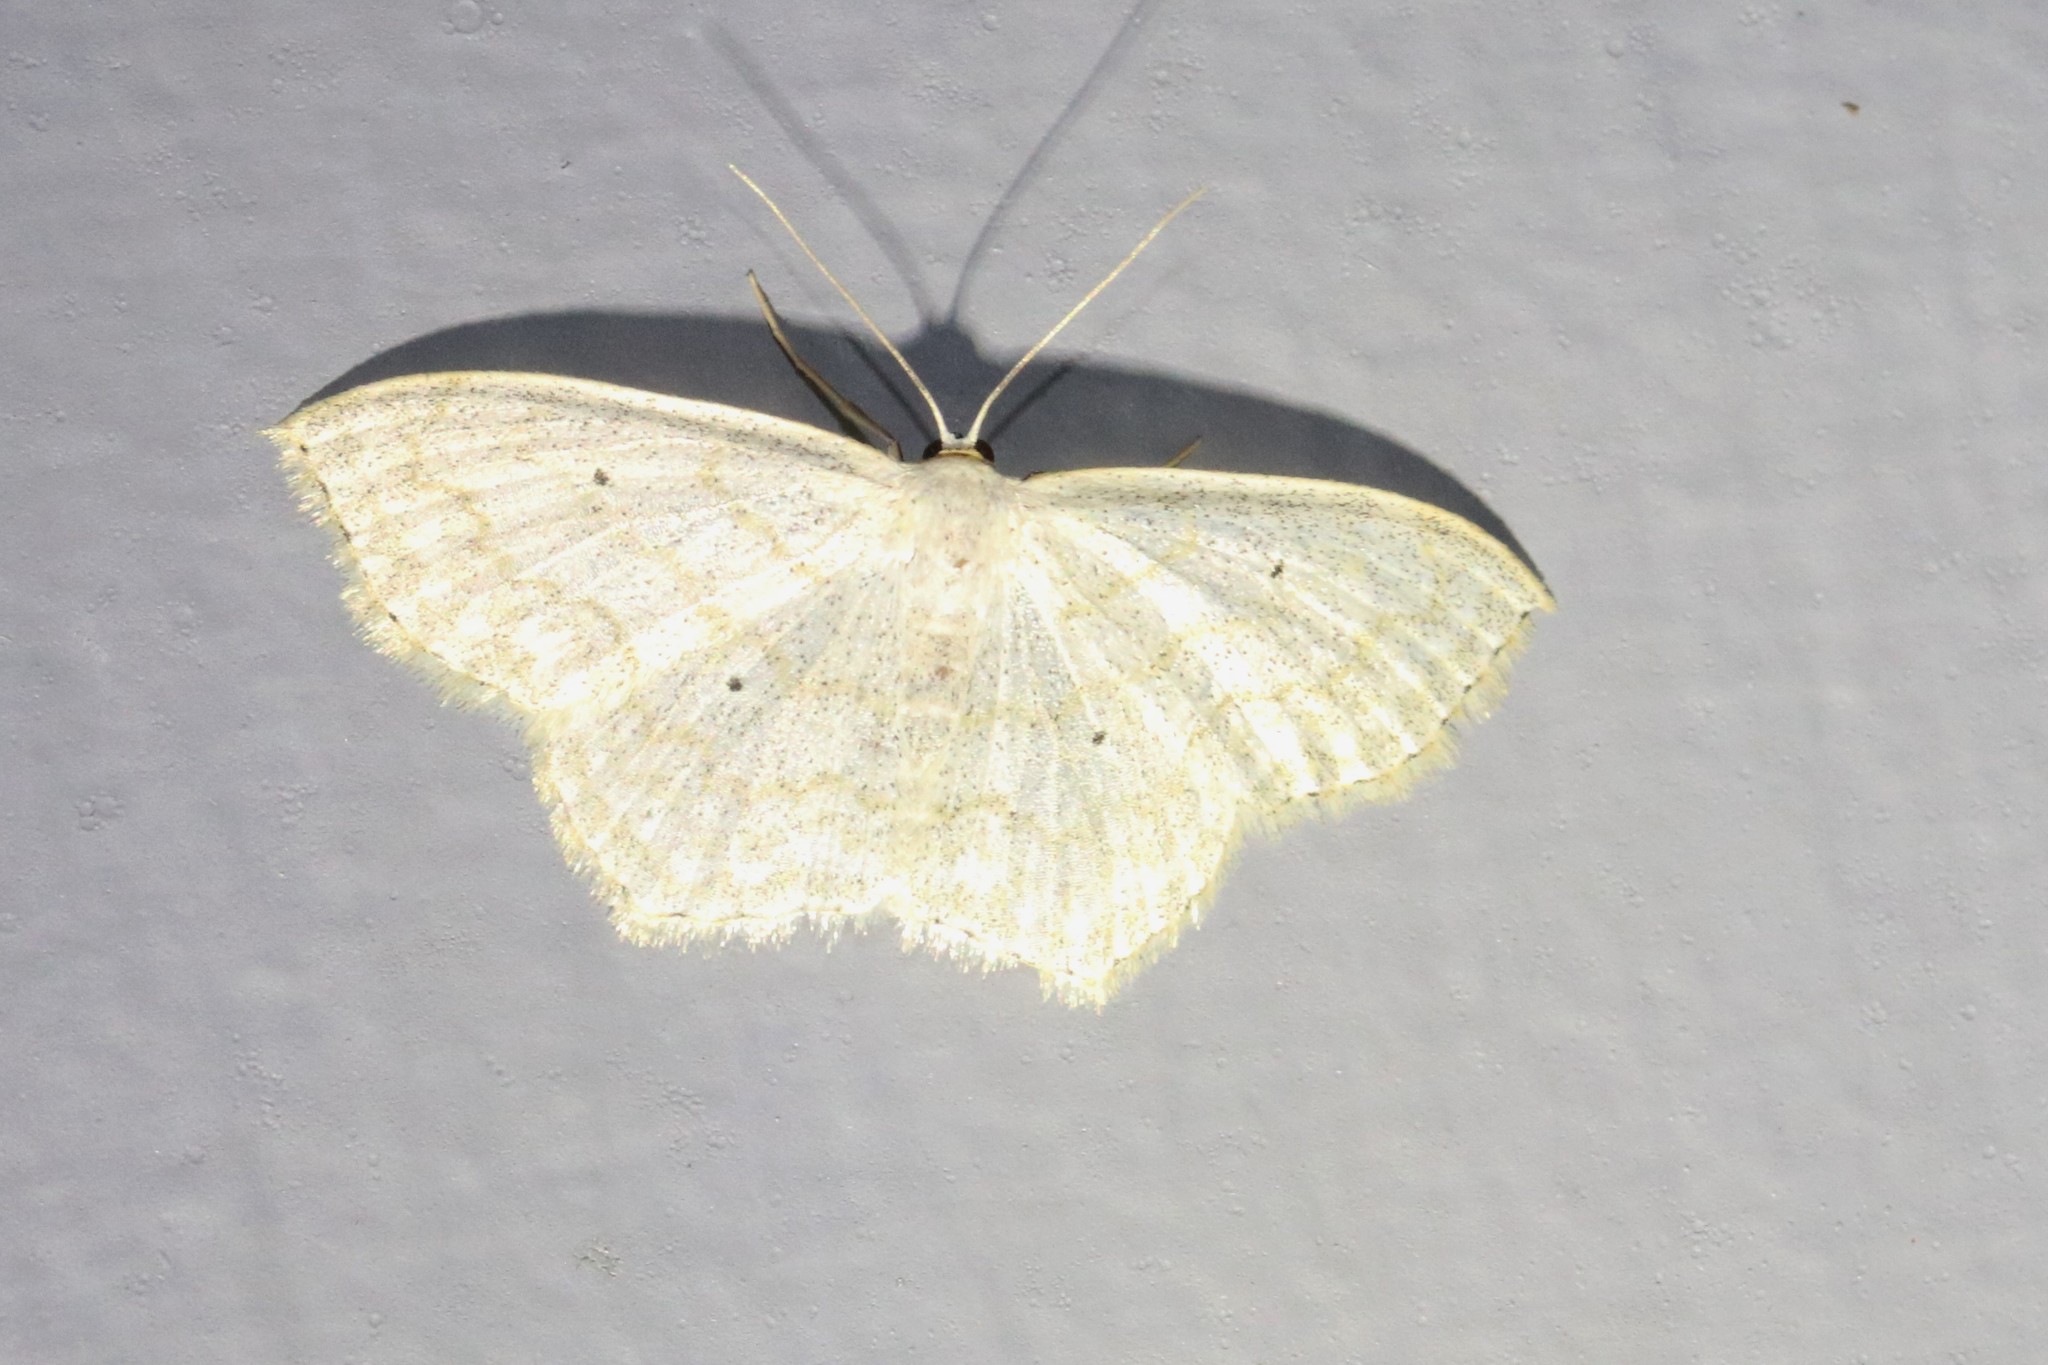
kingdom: Animalia
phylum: Arthropoda
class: Insecta
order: Lepidoptera
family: Geometridae
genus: Scopula
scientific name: Scopula limboundata
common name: Large lace border
